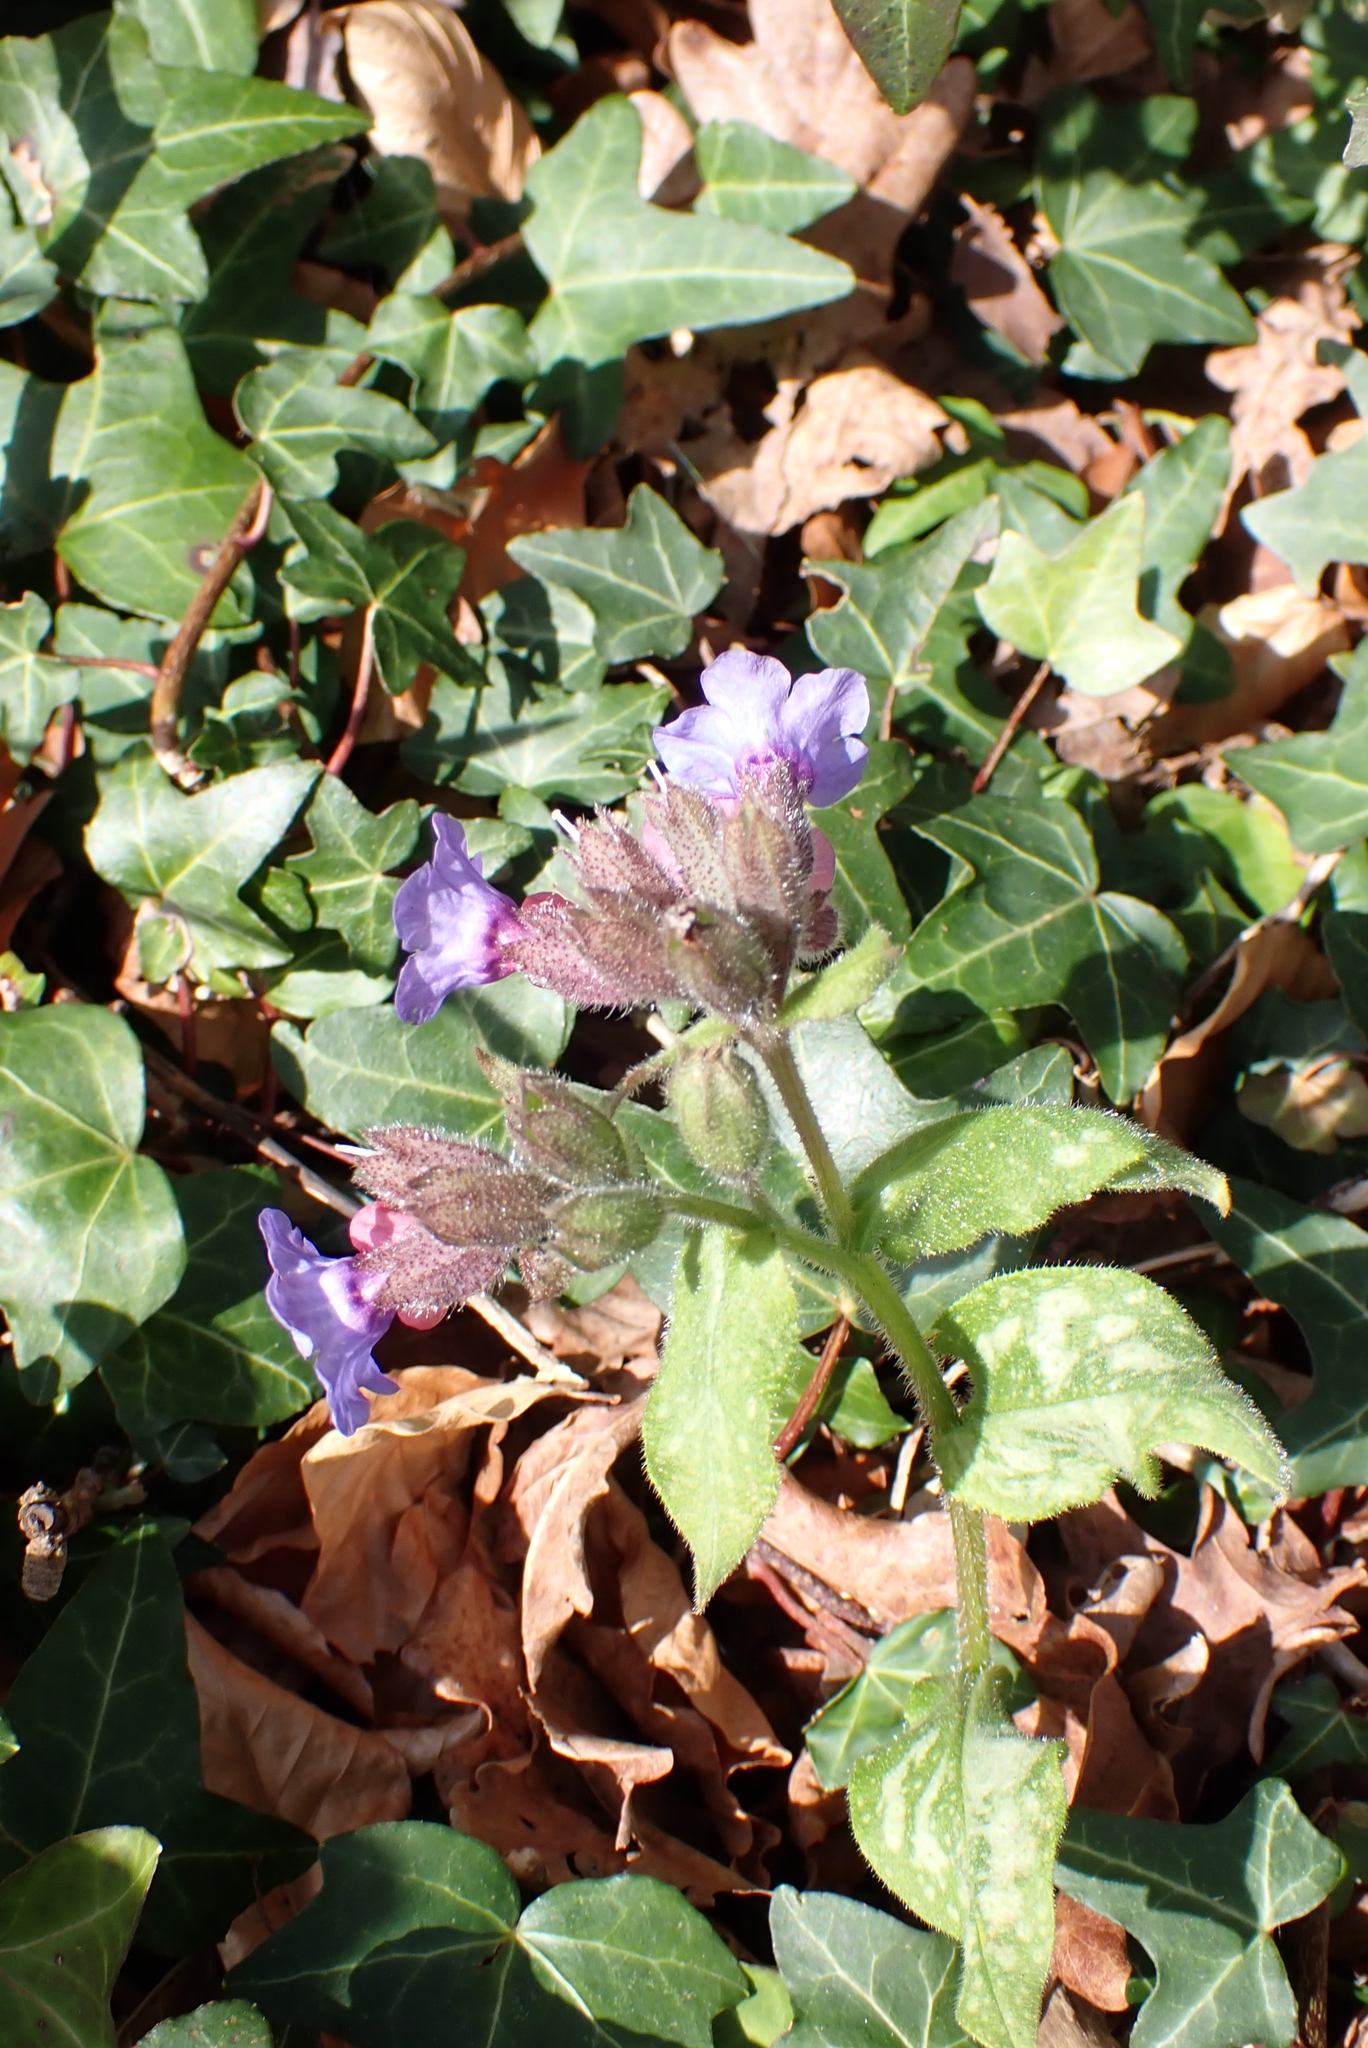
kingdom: Plantae
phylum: Tracheophyta
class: Magnoliopsida
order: Boraginales
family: Boraginaceae
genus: Pulmonaria
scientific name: Pulmonaria officinalis
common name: Lungwort
